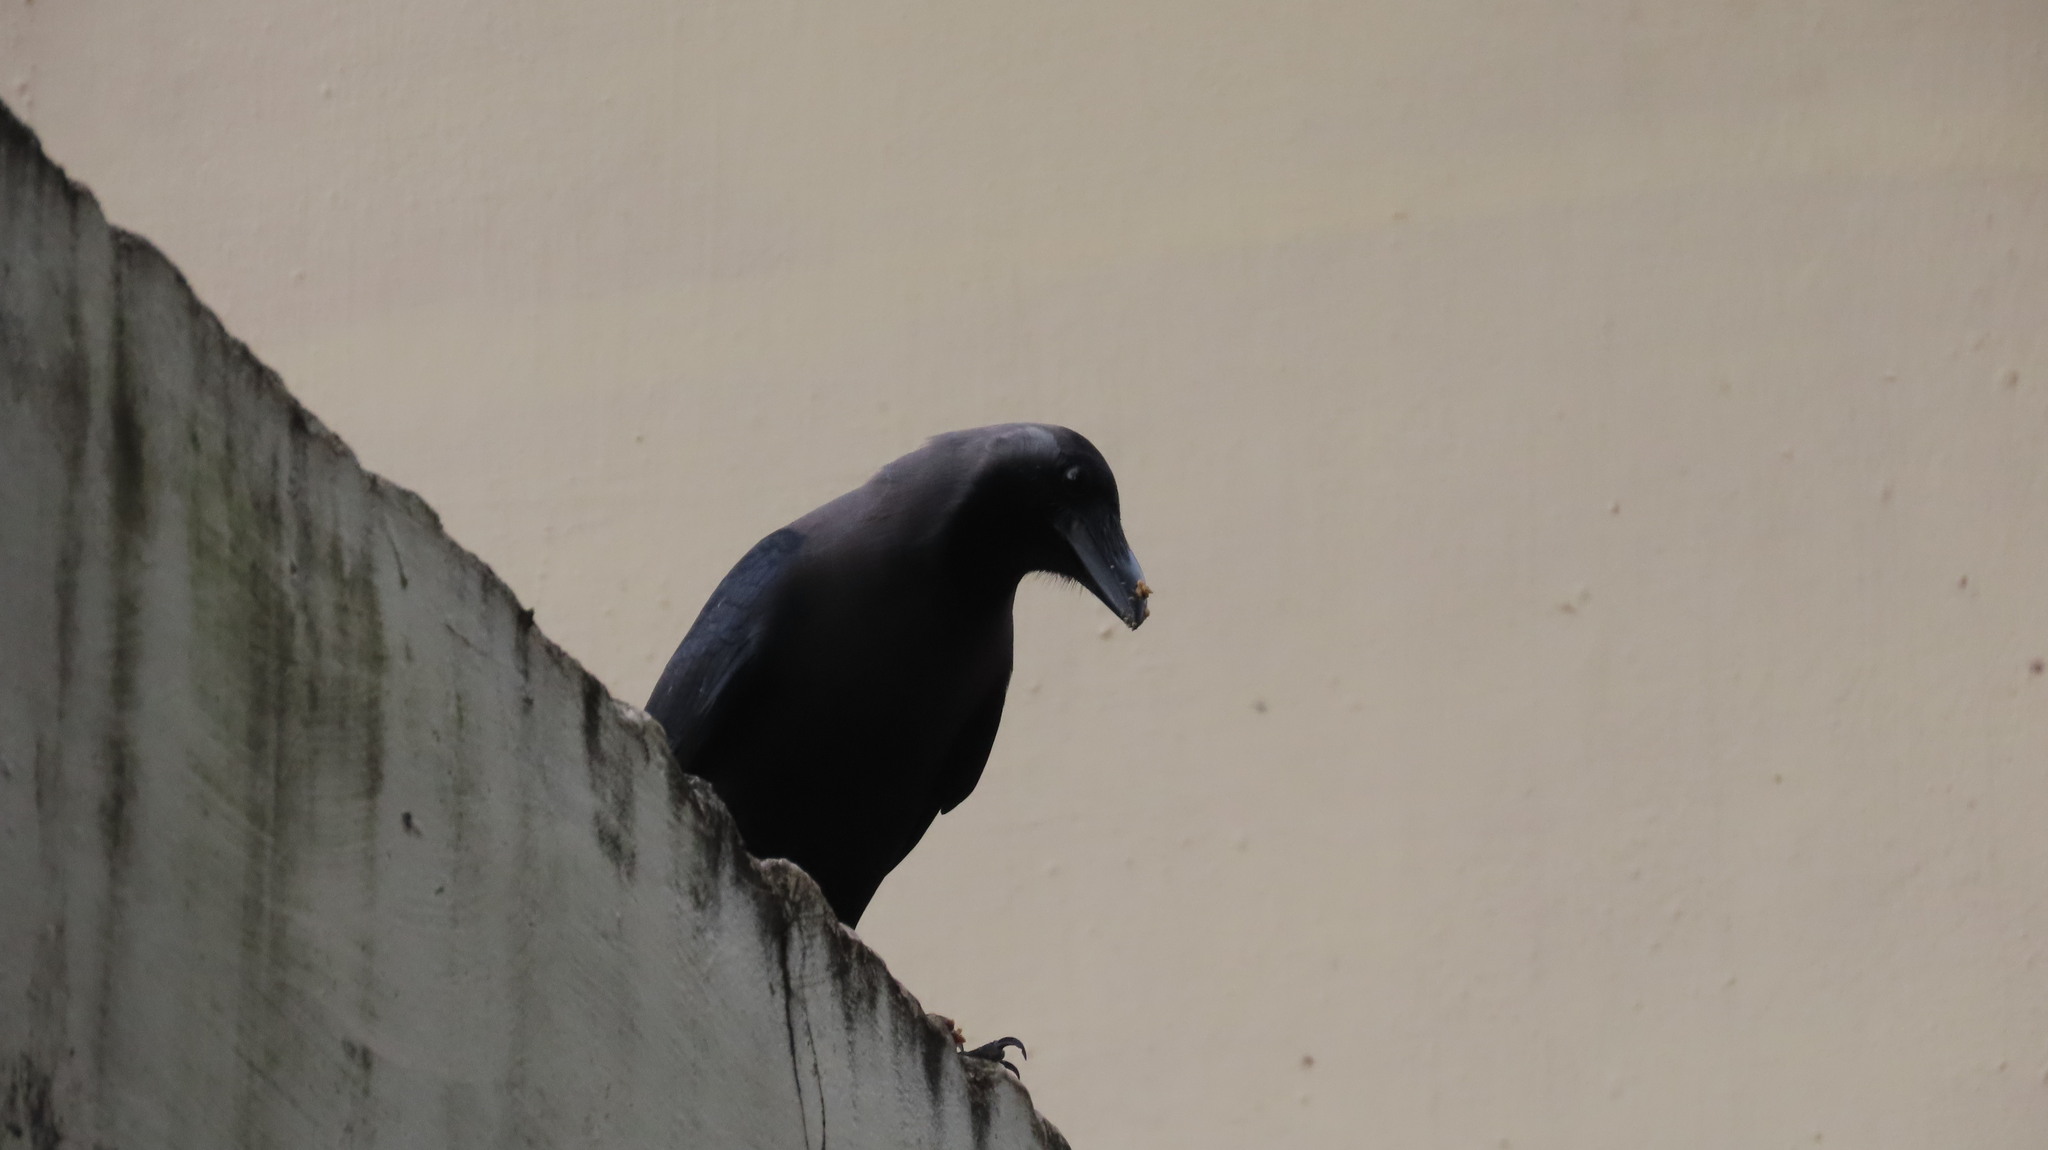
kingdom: Animalia
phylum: Chordata
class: Aves
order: Passeriformes
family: Corvidae
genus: Corvus
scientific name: Corvus splendens
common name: House crow
